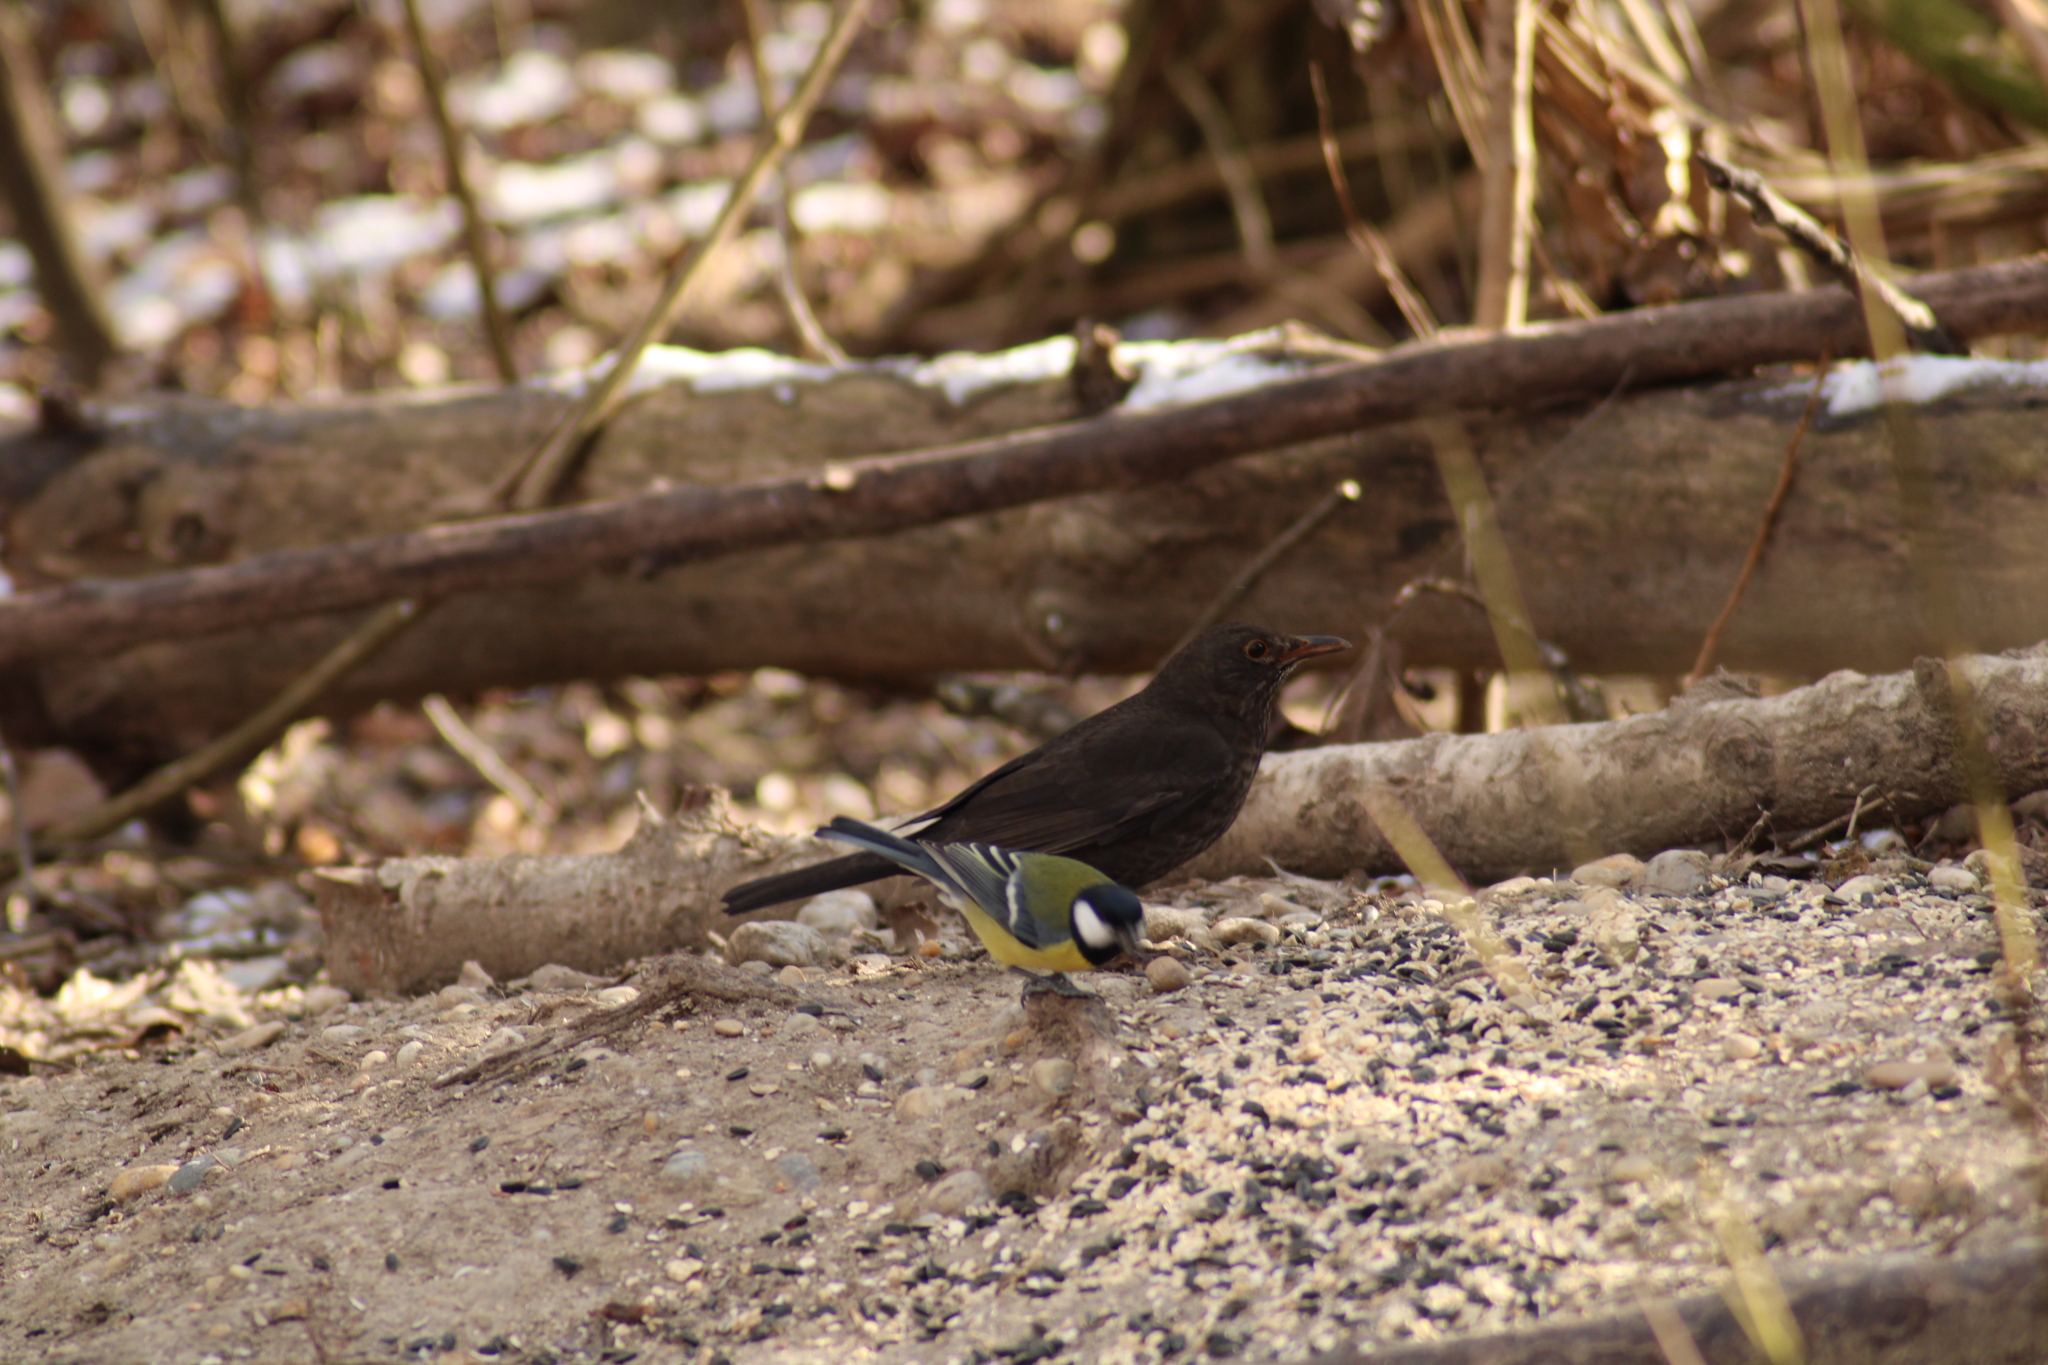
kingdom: Animalia
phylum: Chordata
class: Aves
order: Passeriformes
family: Turdidae
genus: Turdus
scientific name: Turdus merula
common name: Common blackbird
